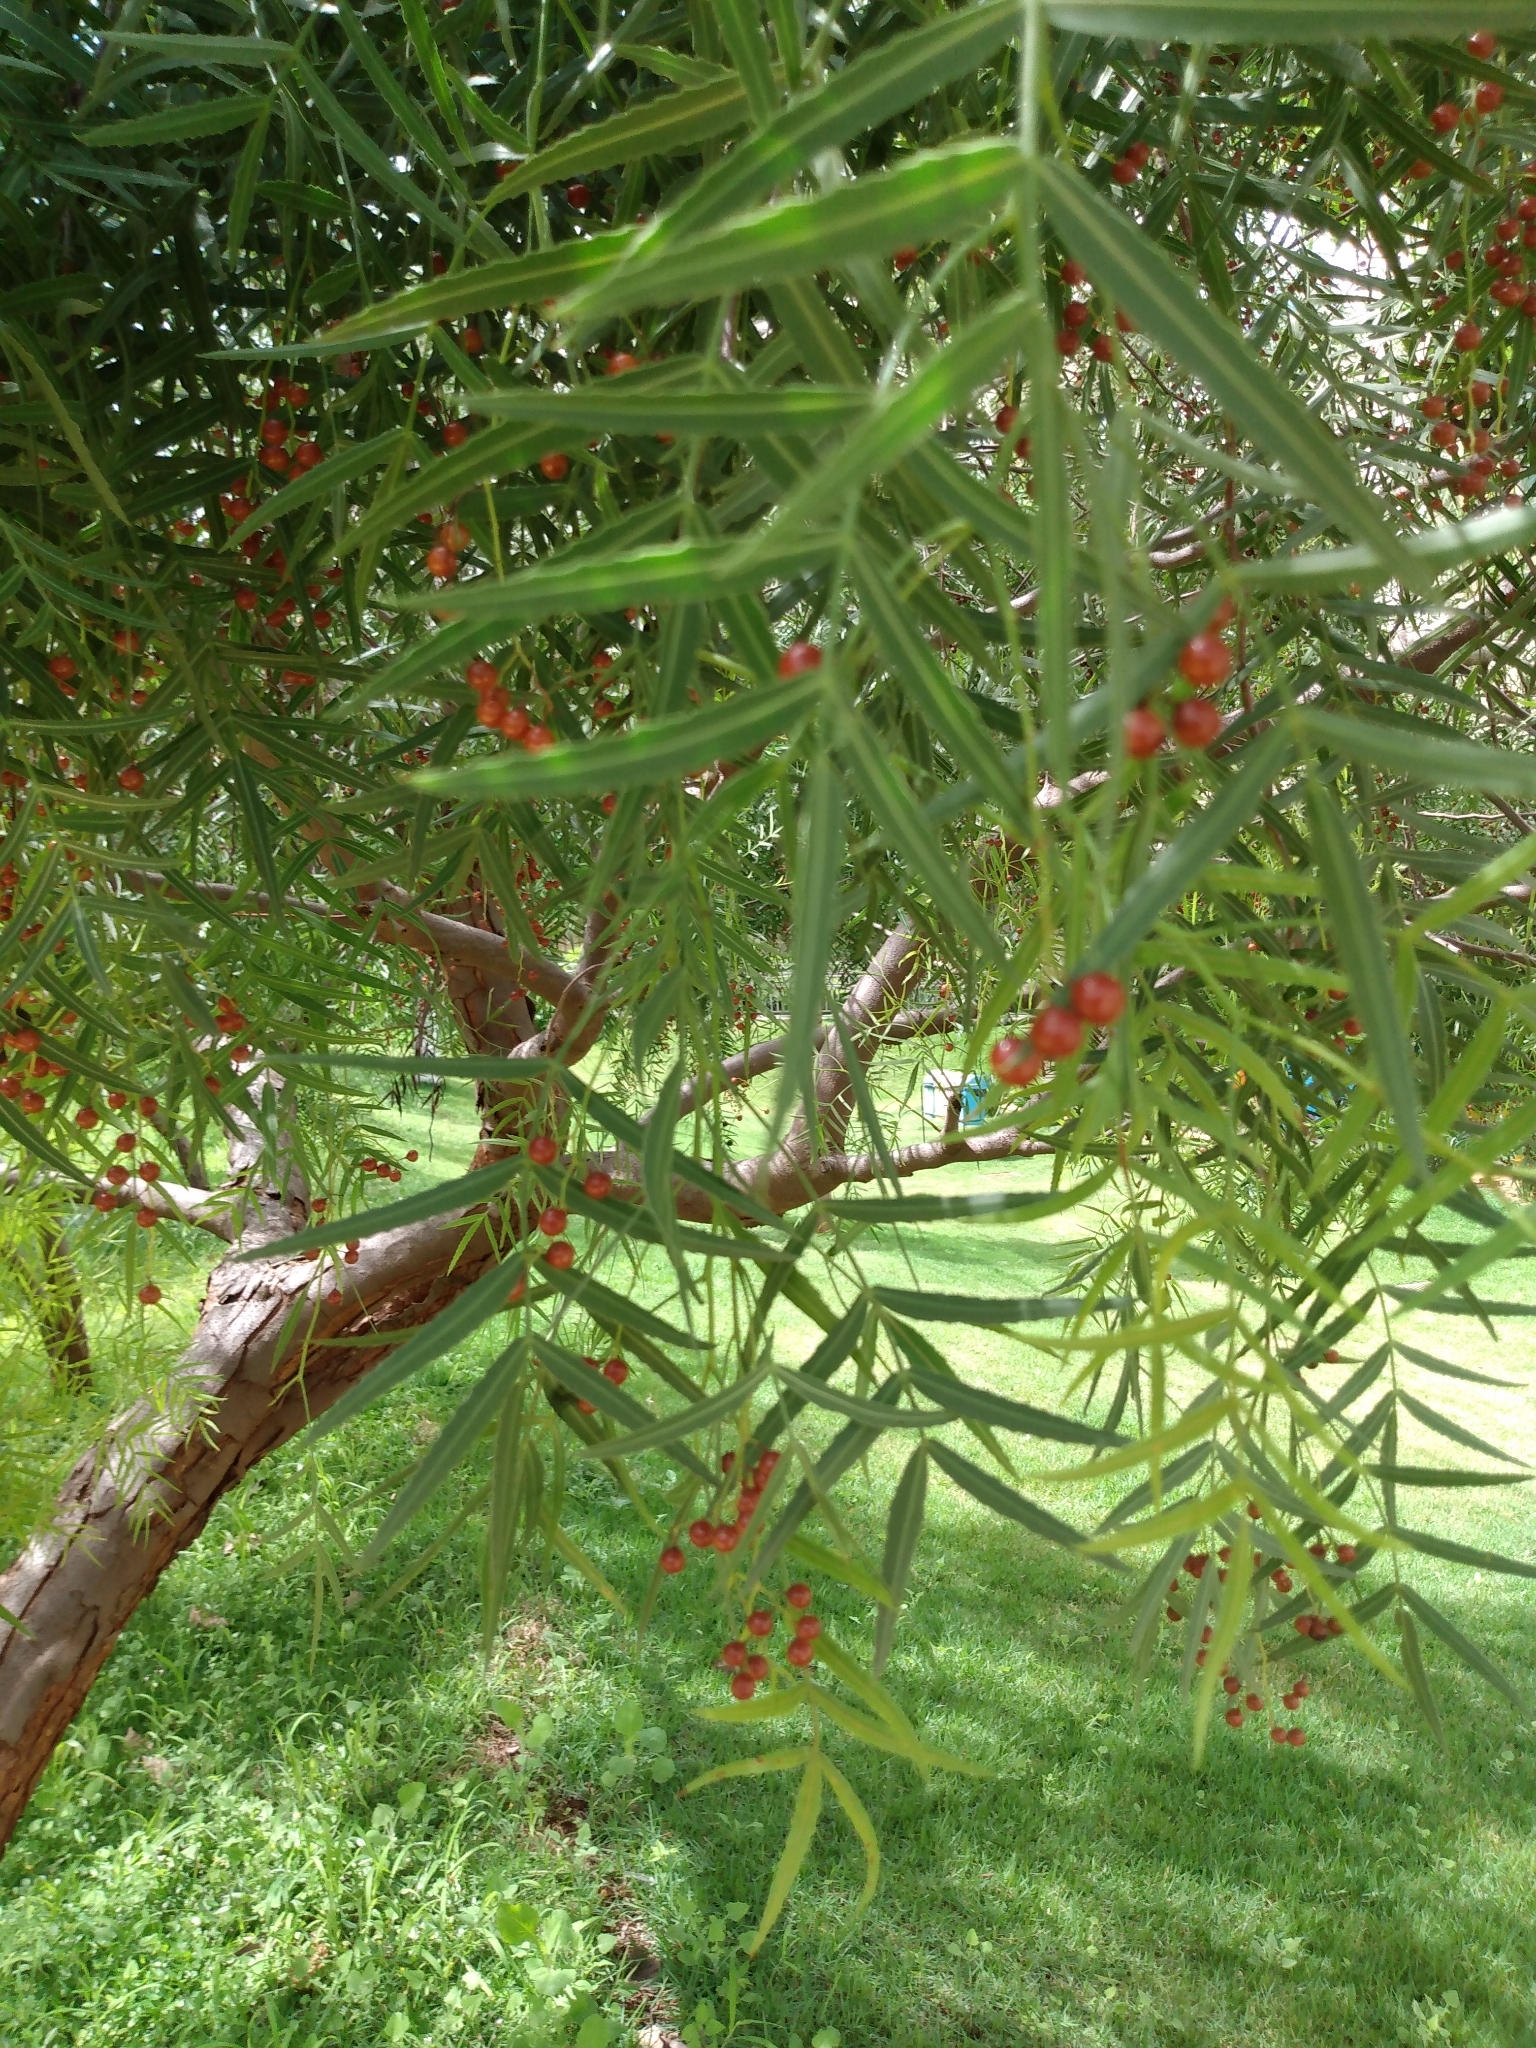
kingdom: Plantae
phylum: Tracheophyta
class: Magnoliopsida
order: Sapindales
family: Anacardiaceae
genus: Schinus
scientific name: Schinus molle
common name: Peruvian peppertree
